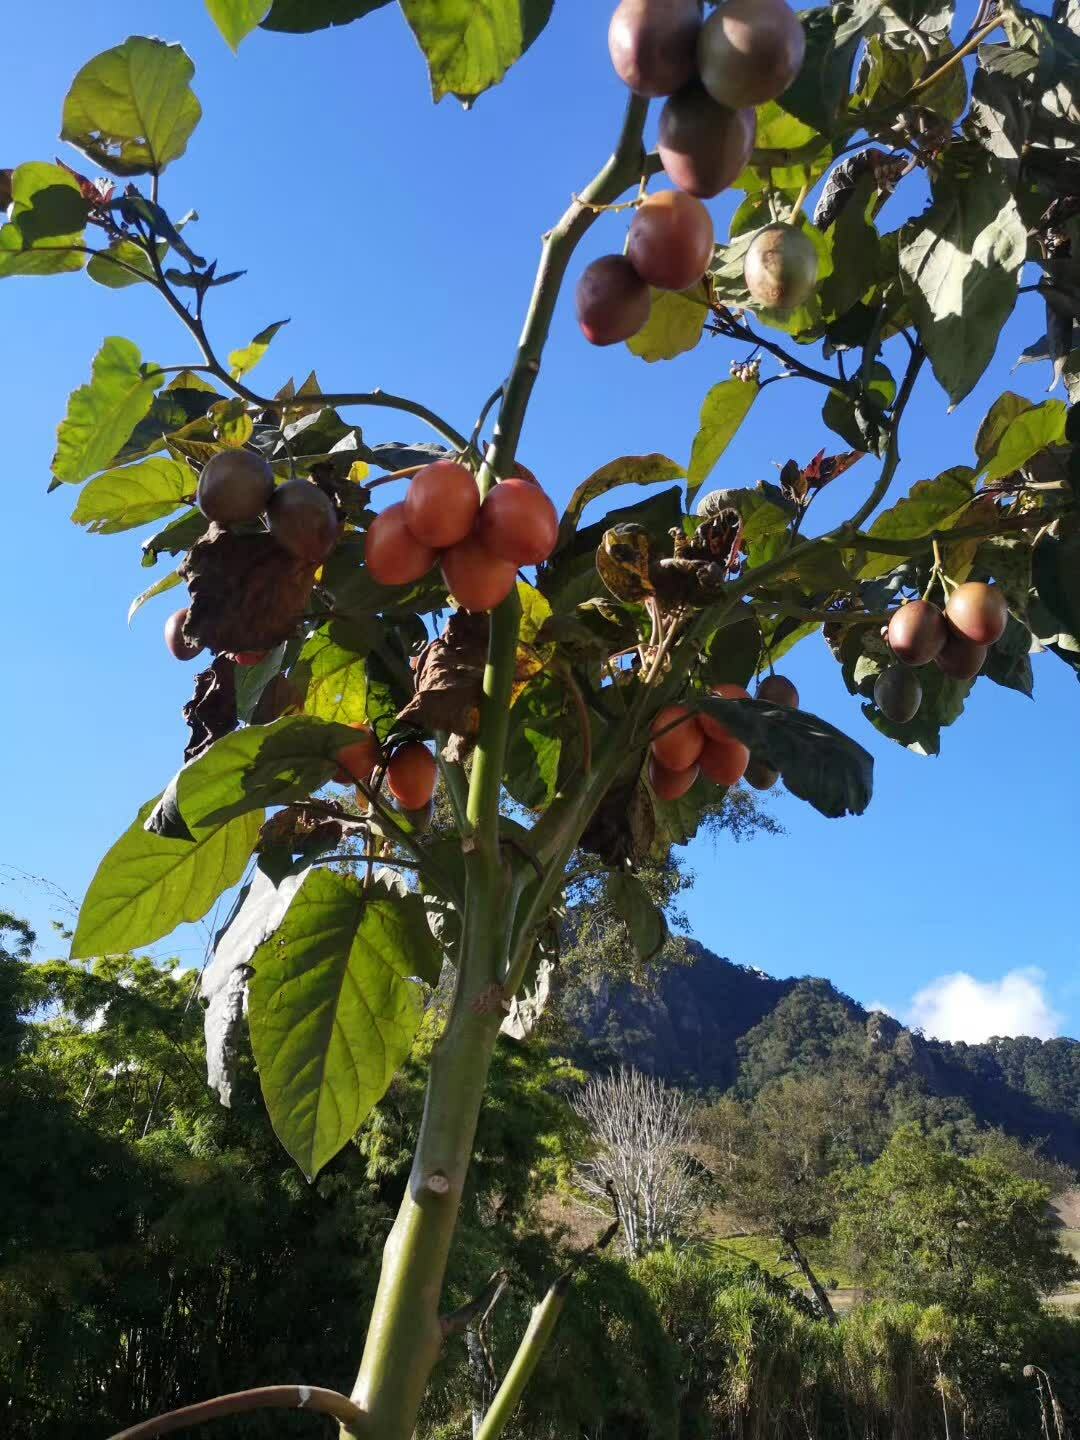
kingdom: Plantae
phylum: Tracheophyta
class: Magnoliopsida
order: Solanales
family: Solanaceae
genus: Solanum
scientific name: Solanum betaceum
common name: Tamarillo
